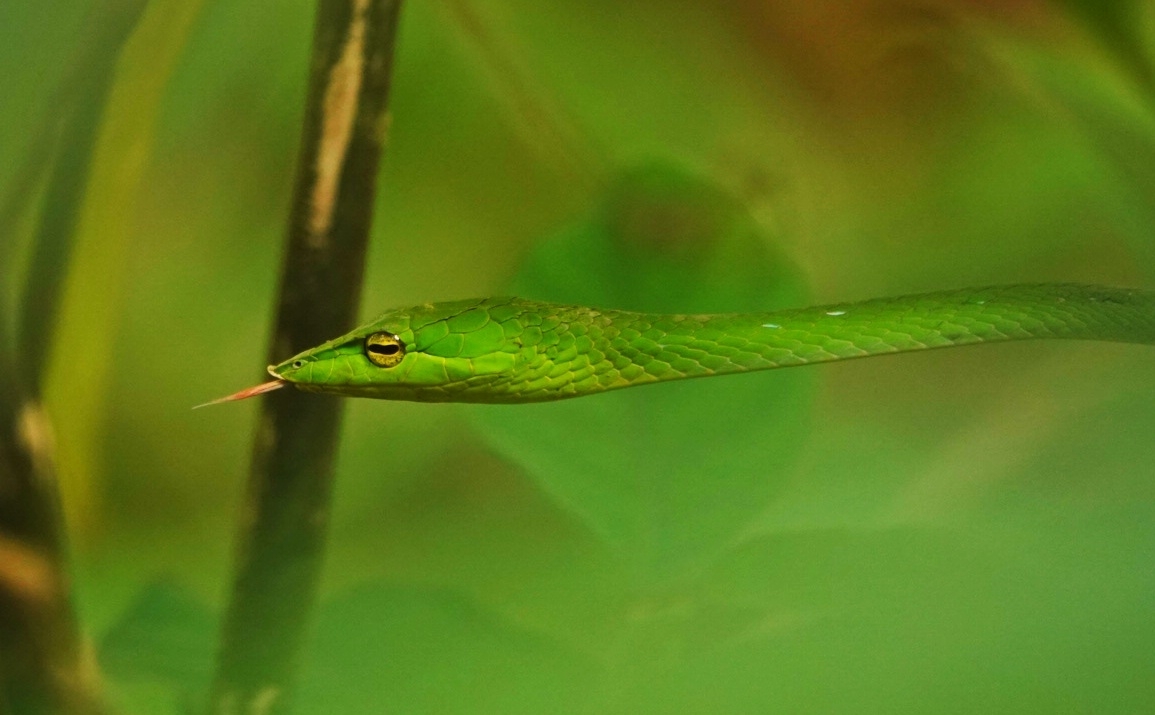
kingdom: Animalia
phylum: Chordata
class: Squamata
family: Colubridae
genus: Ahaetulla
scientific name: Ahaetulla malabarica
